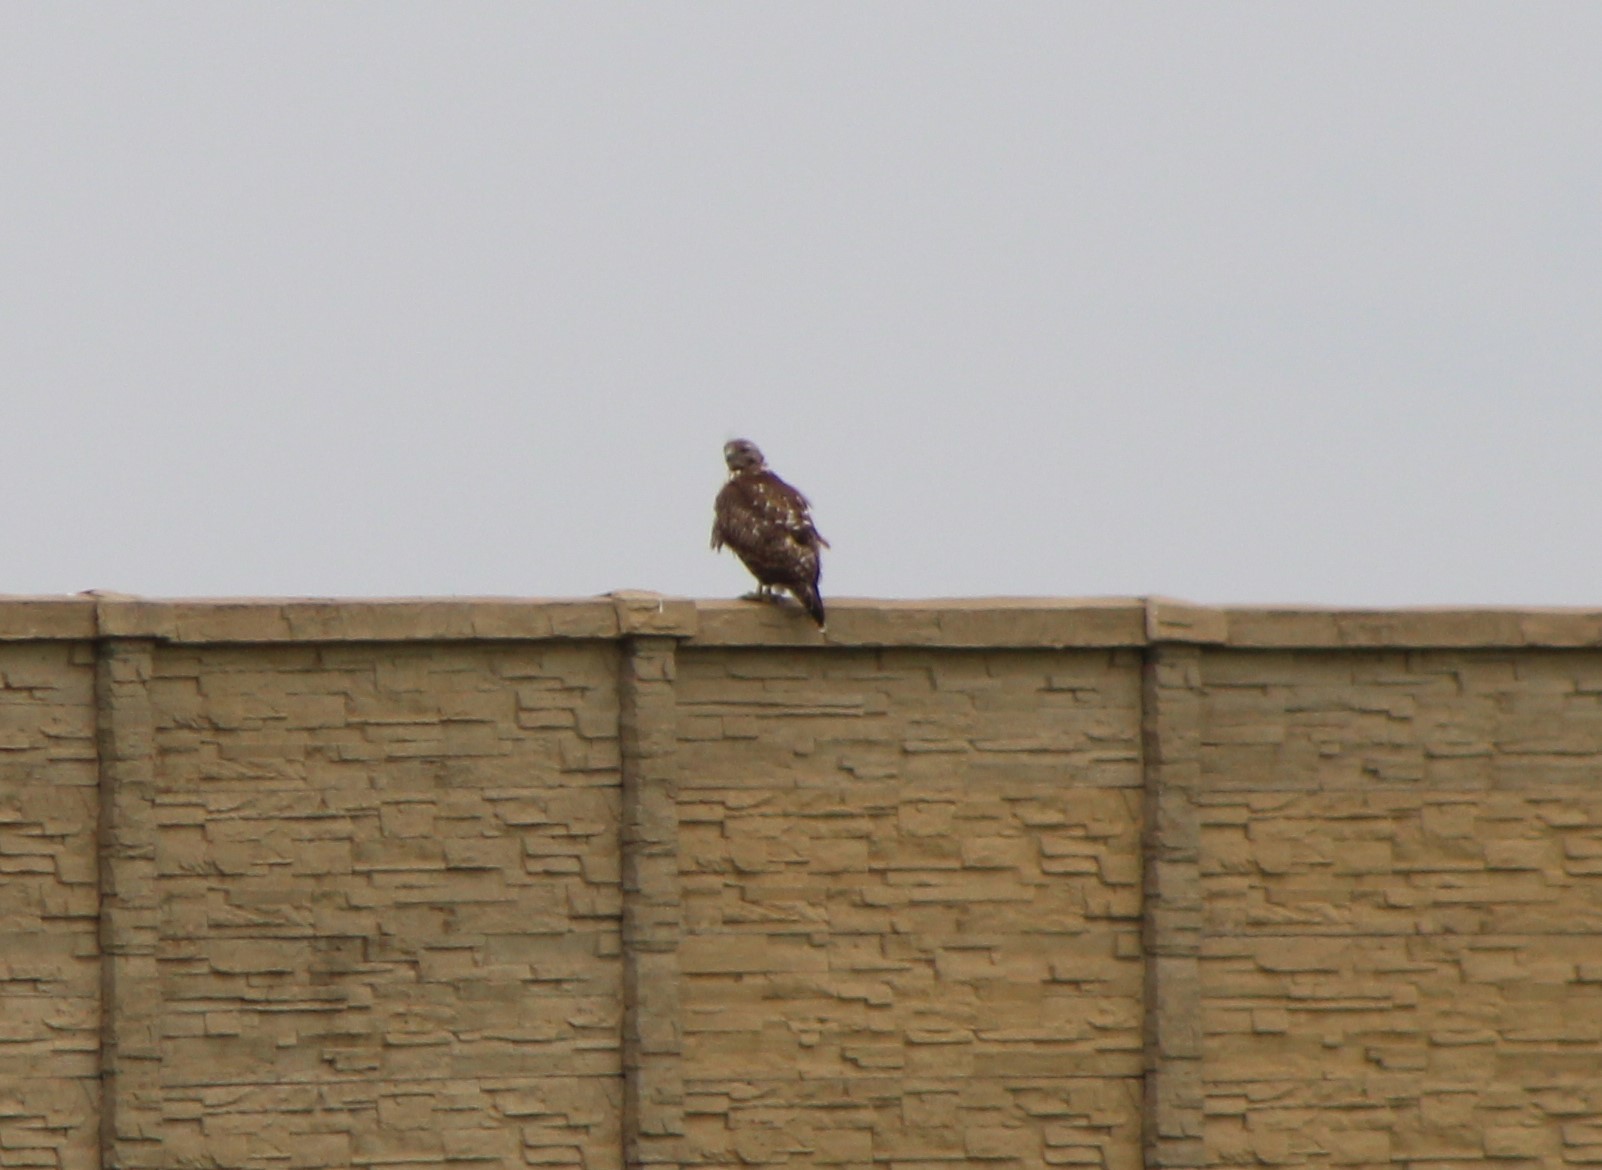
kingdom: Animalia
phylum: Chordata
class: Aves
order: Accipitriformes
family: Accipitridae
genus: Buteo
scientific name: Buteo jamaicensis
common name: Red-tailed hawk
